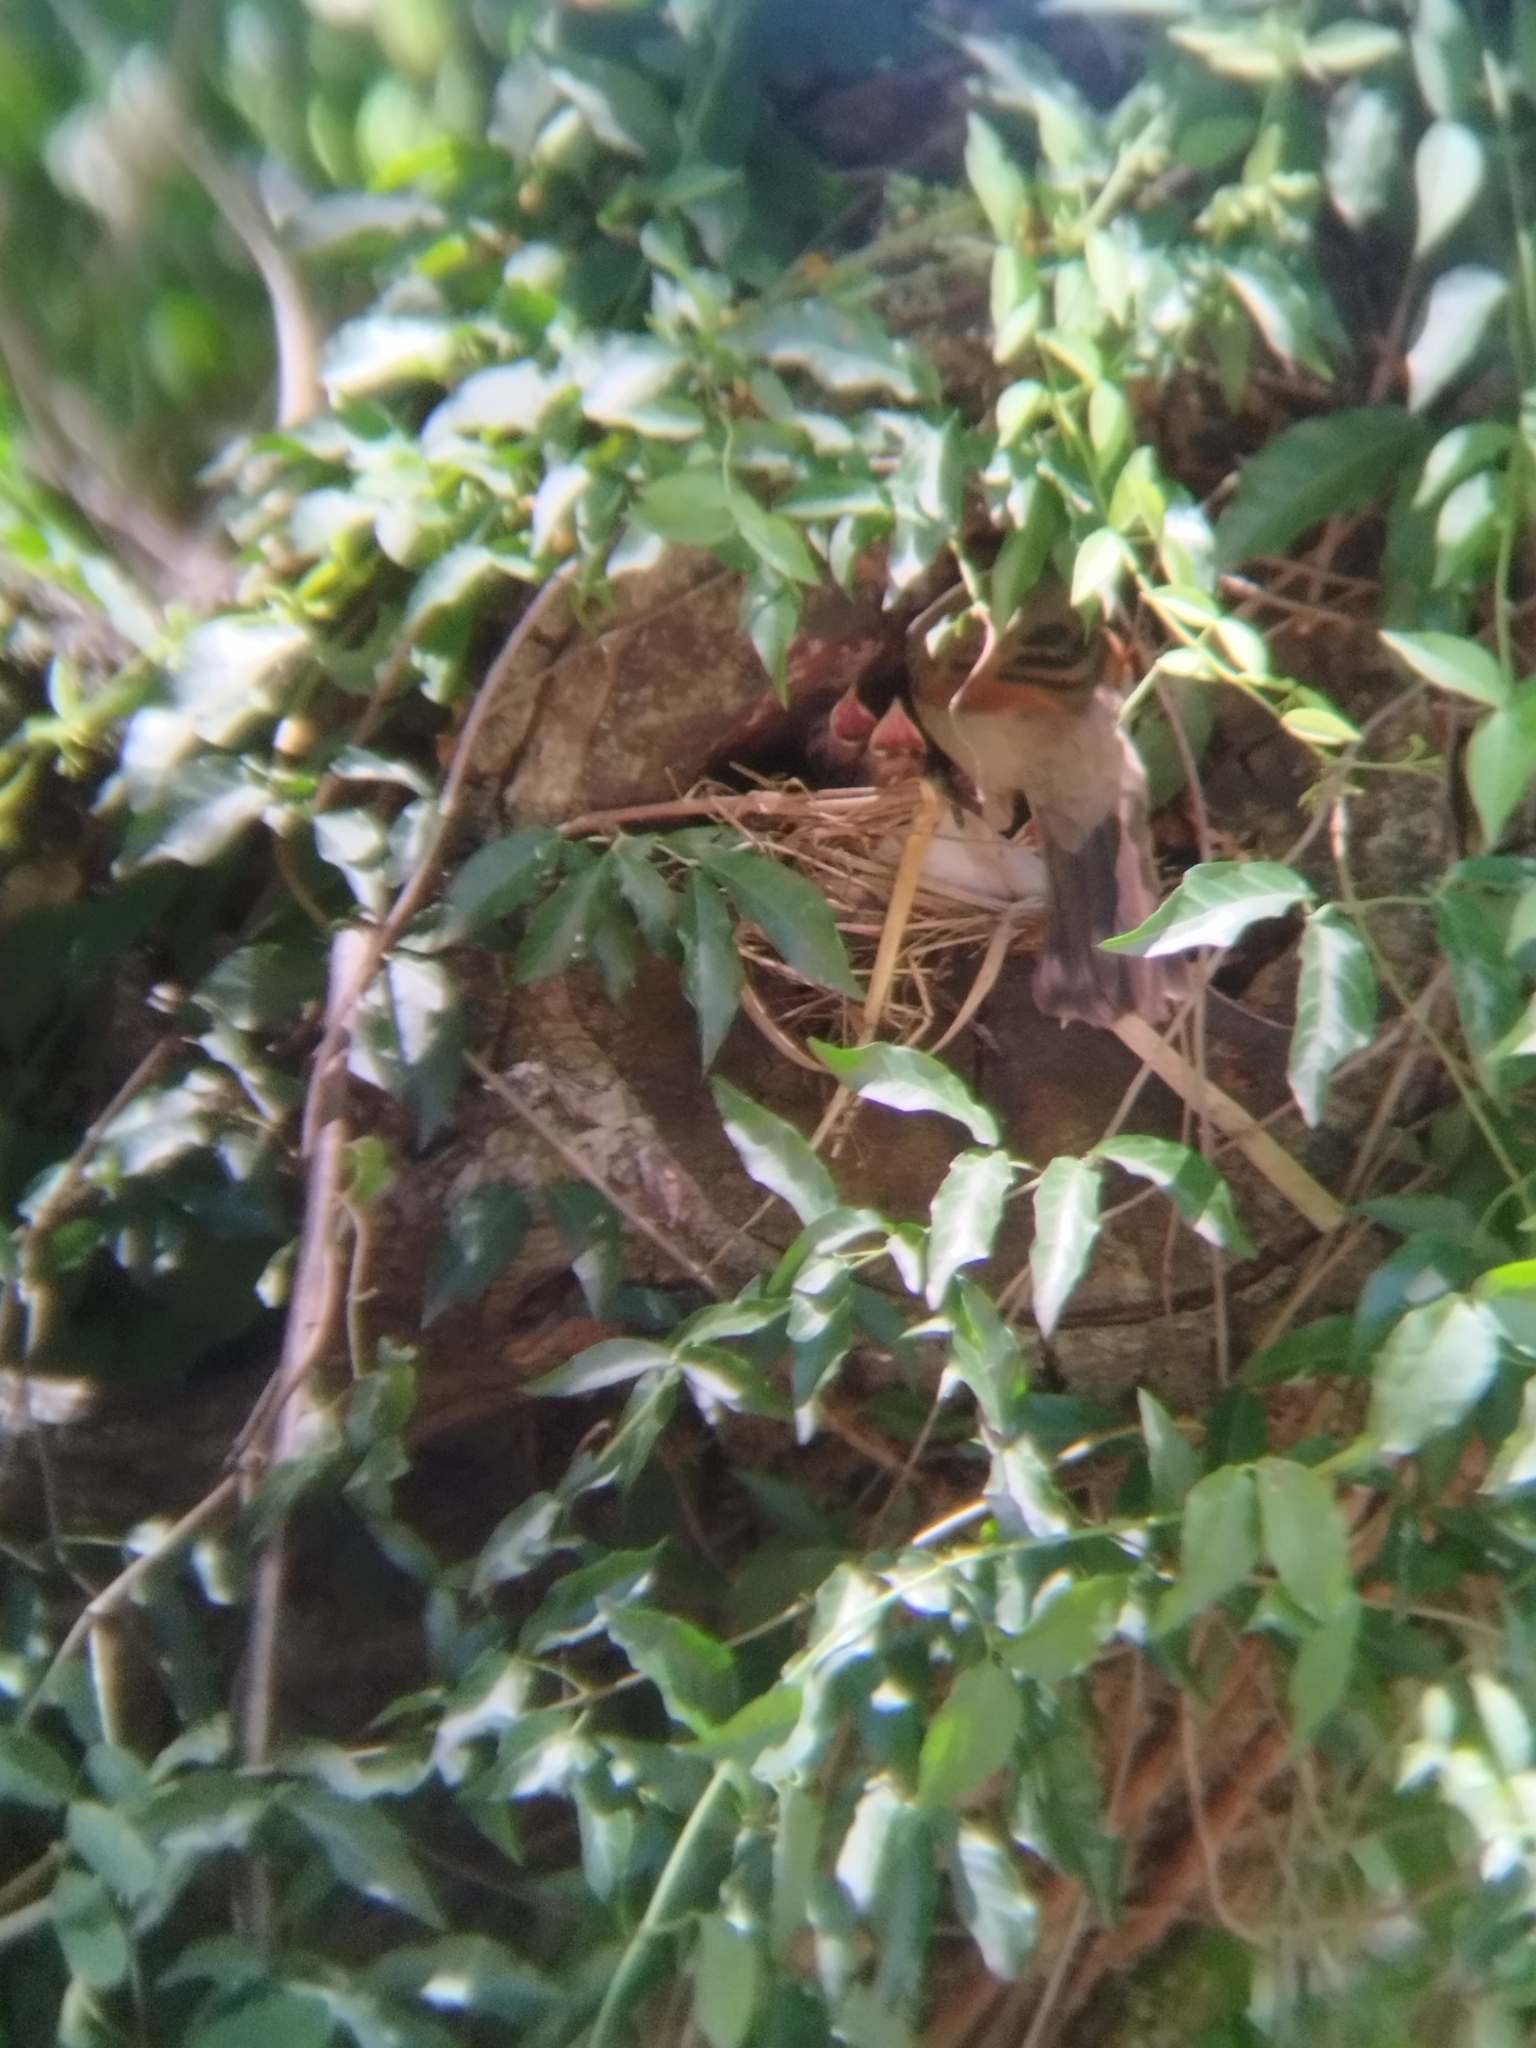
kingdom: Animalia
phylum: Chordata
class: Aves
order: Passeriformes
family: Icteridae
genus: Agelaioides
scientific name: Agelaioides badius
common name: Baywing
